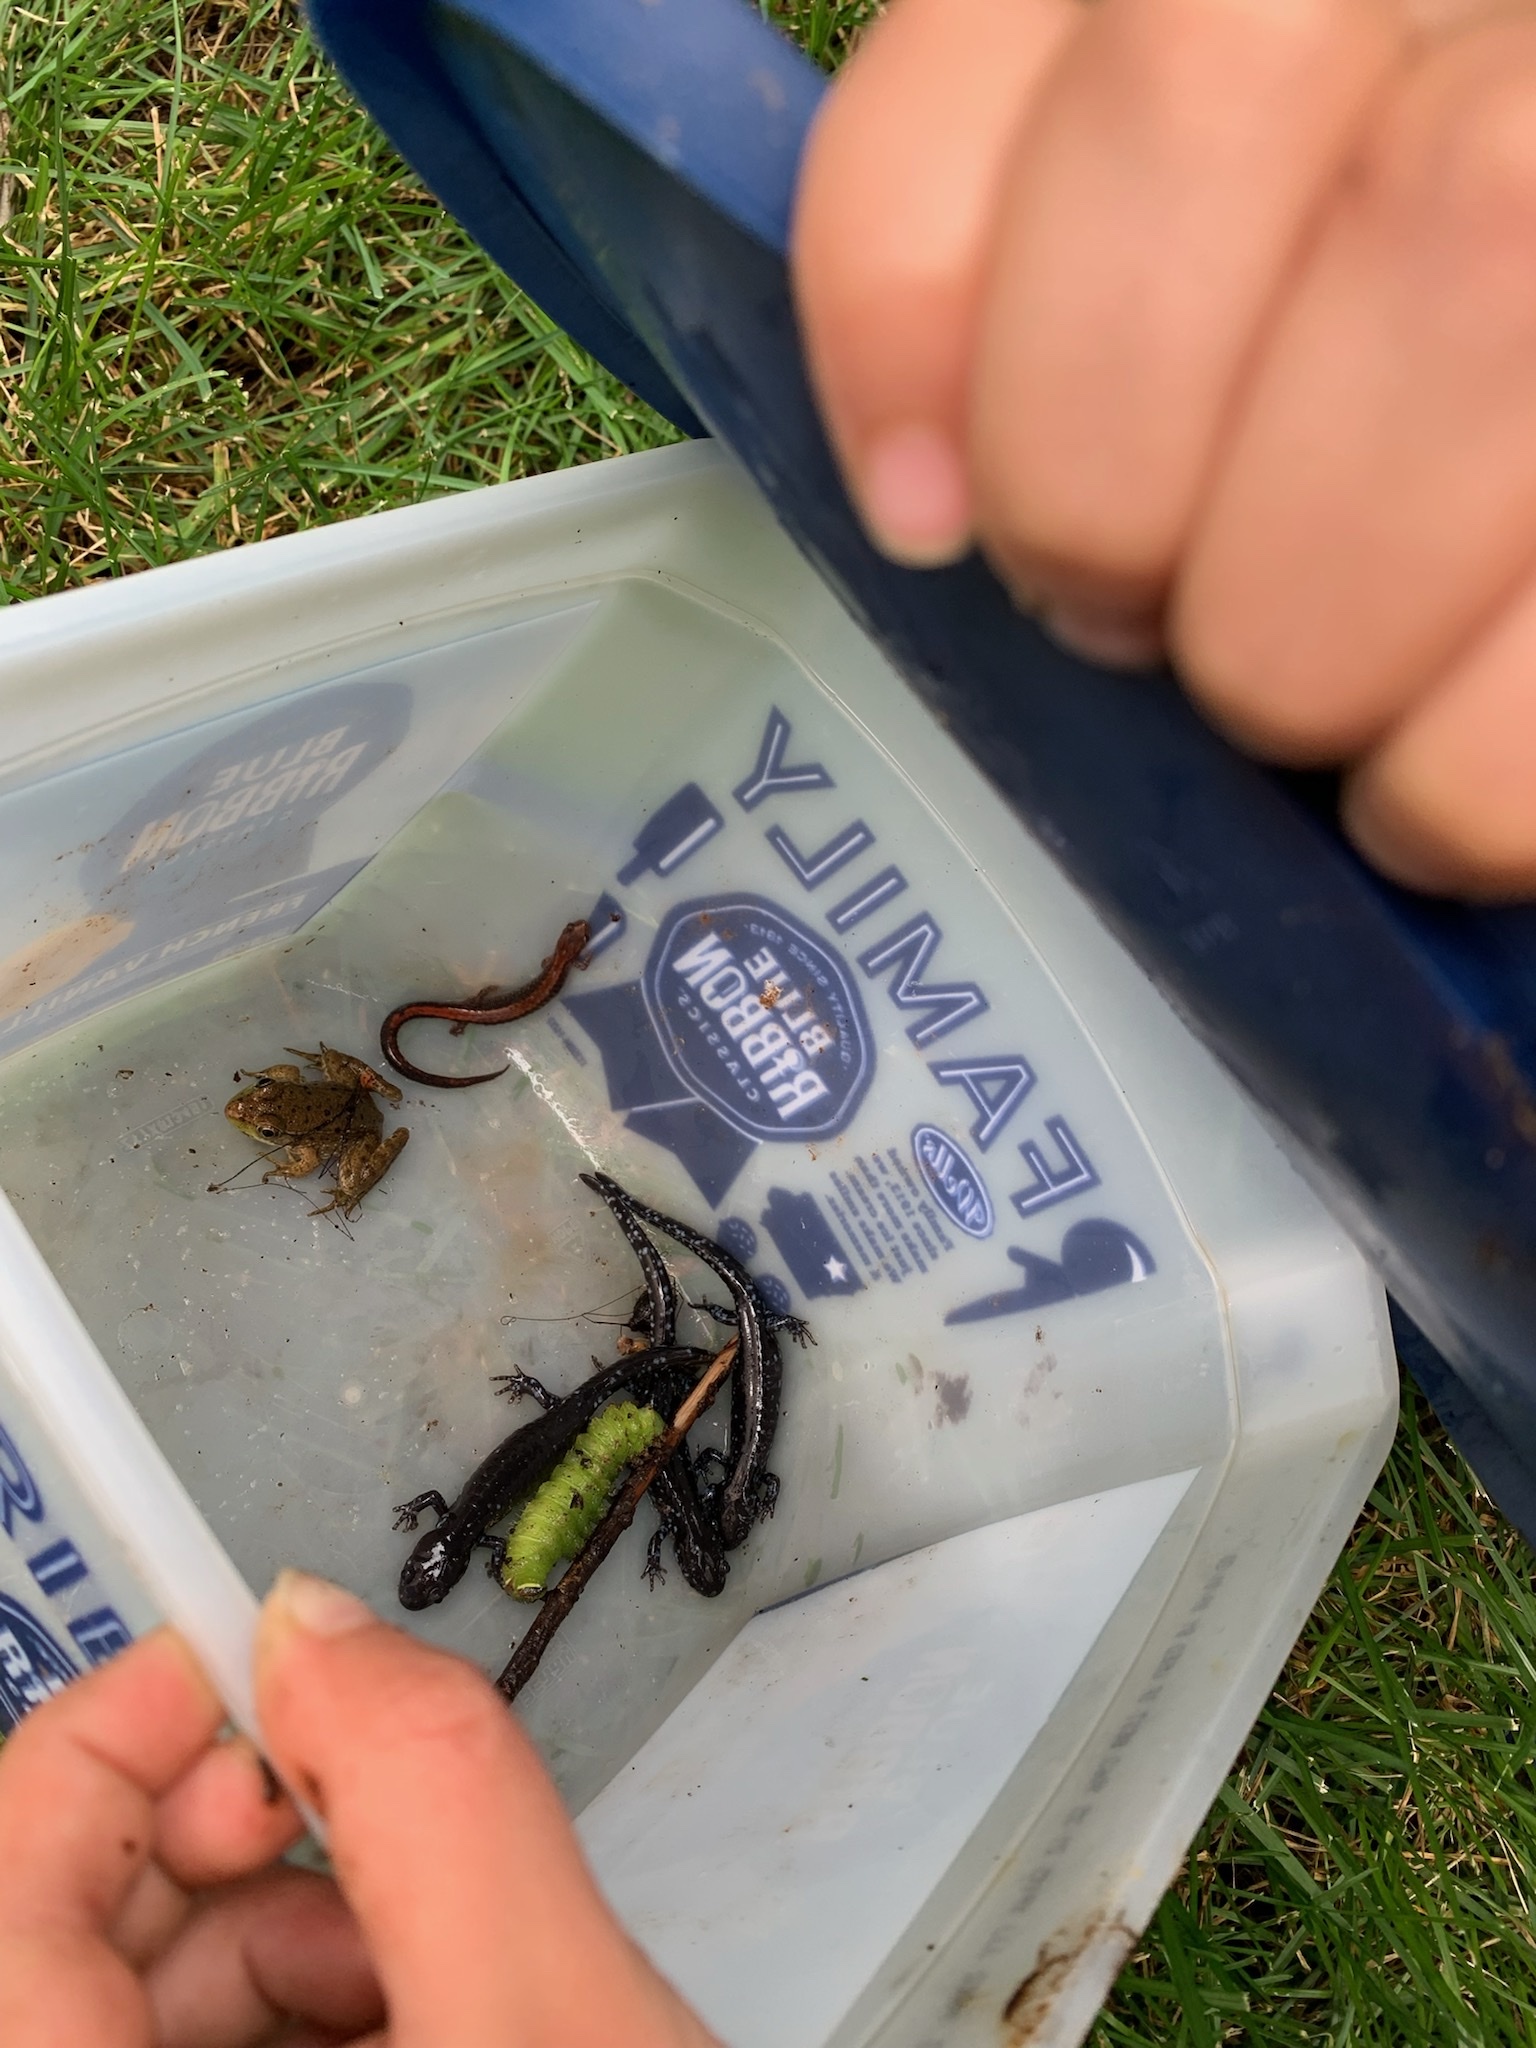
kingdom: Animalia
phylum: Chordata
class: Amphibia
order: Caudata
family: Plethodontidae
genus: Plethodon
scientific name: Plethodon cinereus
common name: Redback salamander
